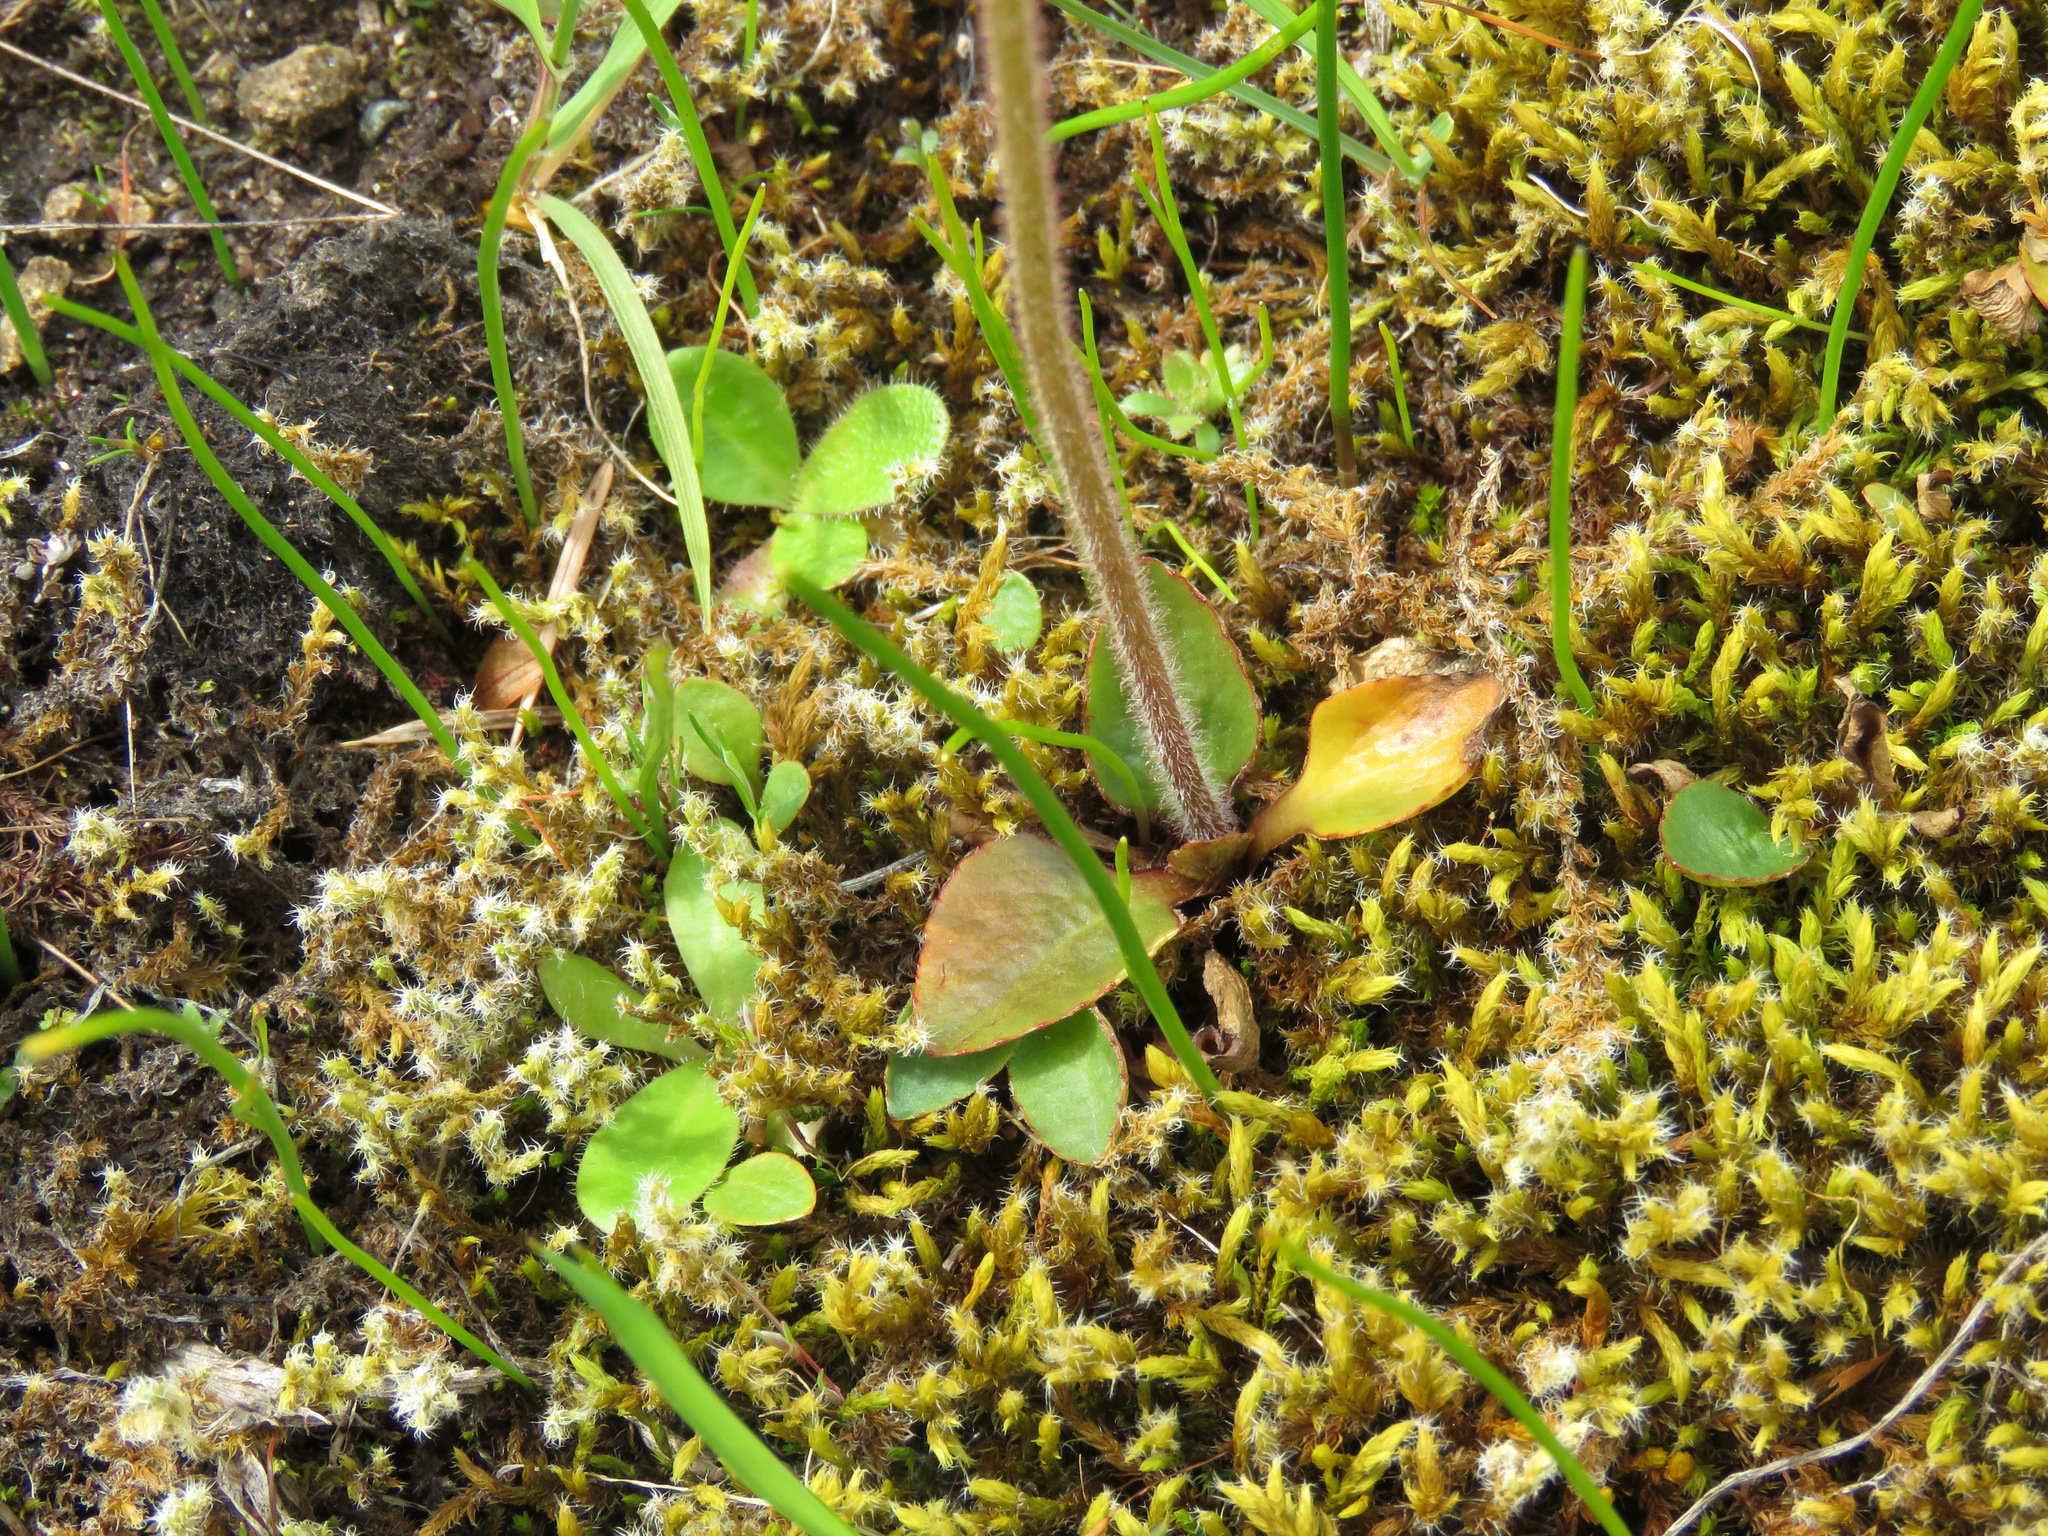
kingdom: Plantae
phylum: Tracheophyta
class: Magnoliopsida
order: Saxifragales
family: Saxifragaceae
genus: Micranthes
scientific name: Micranthes integrifolia
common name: Wholeleaf saxifrage
